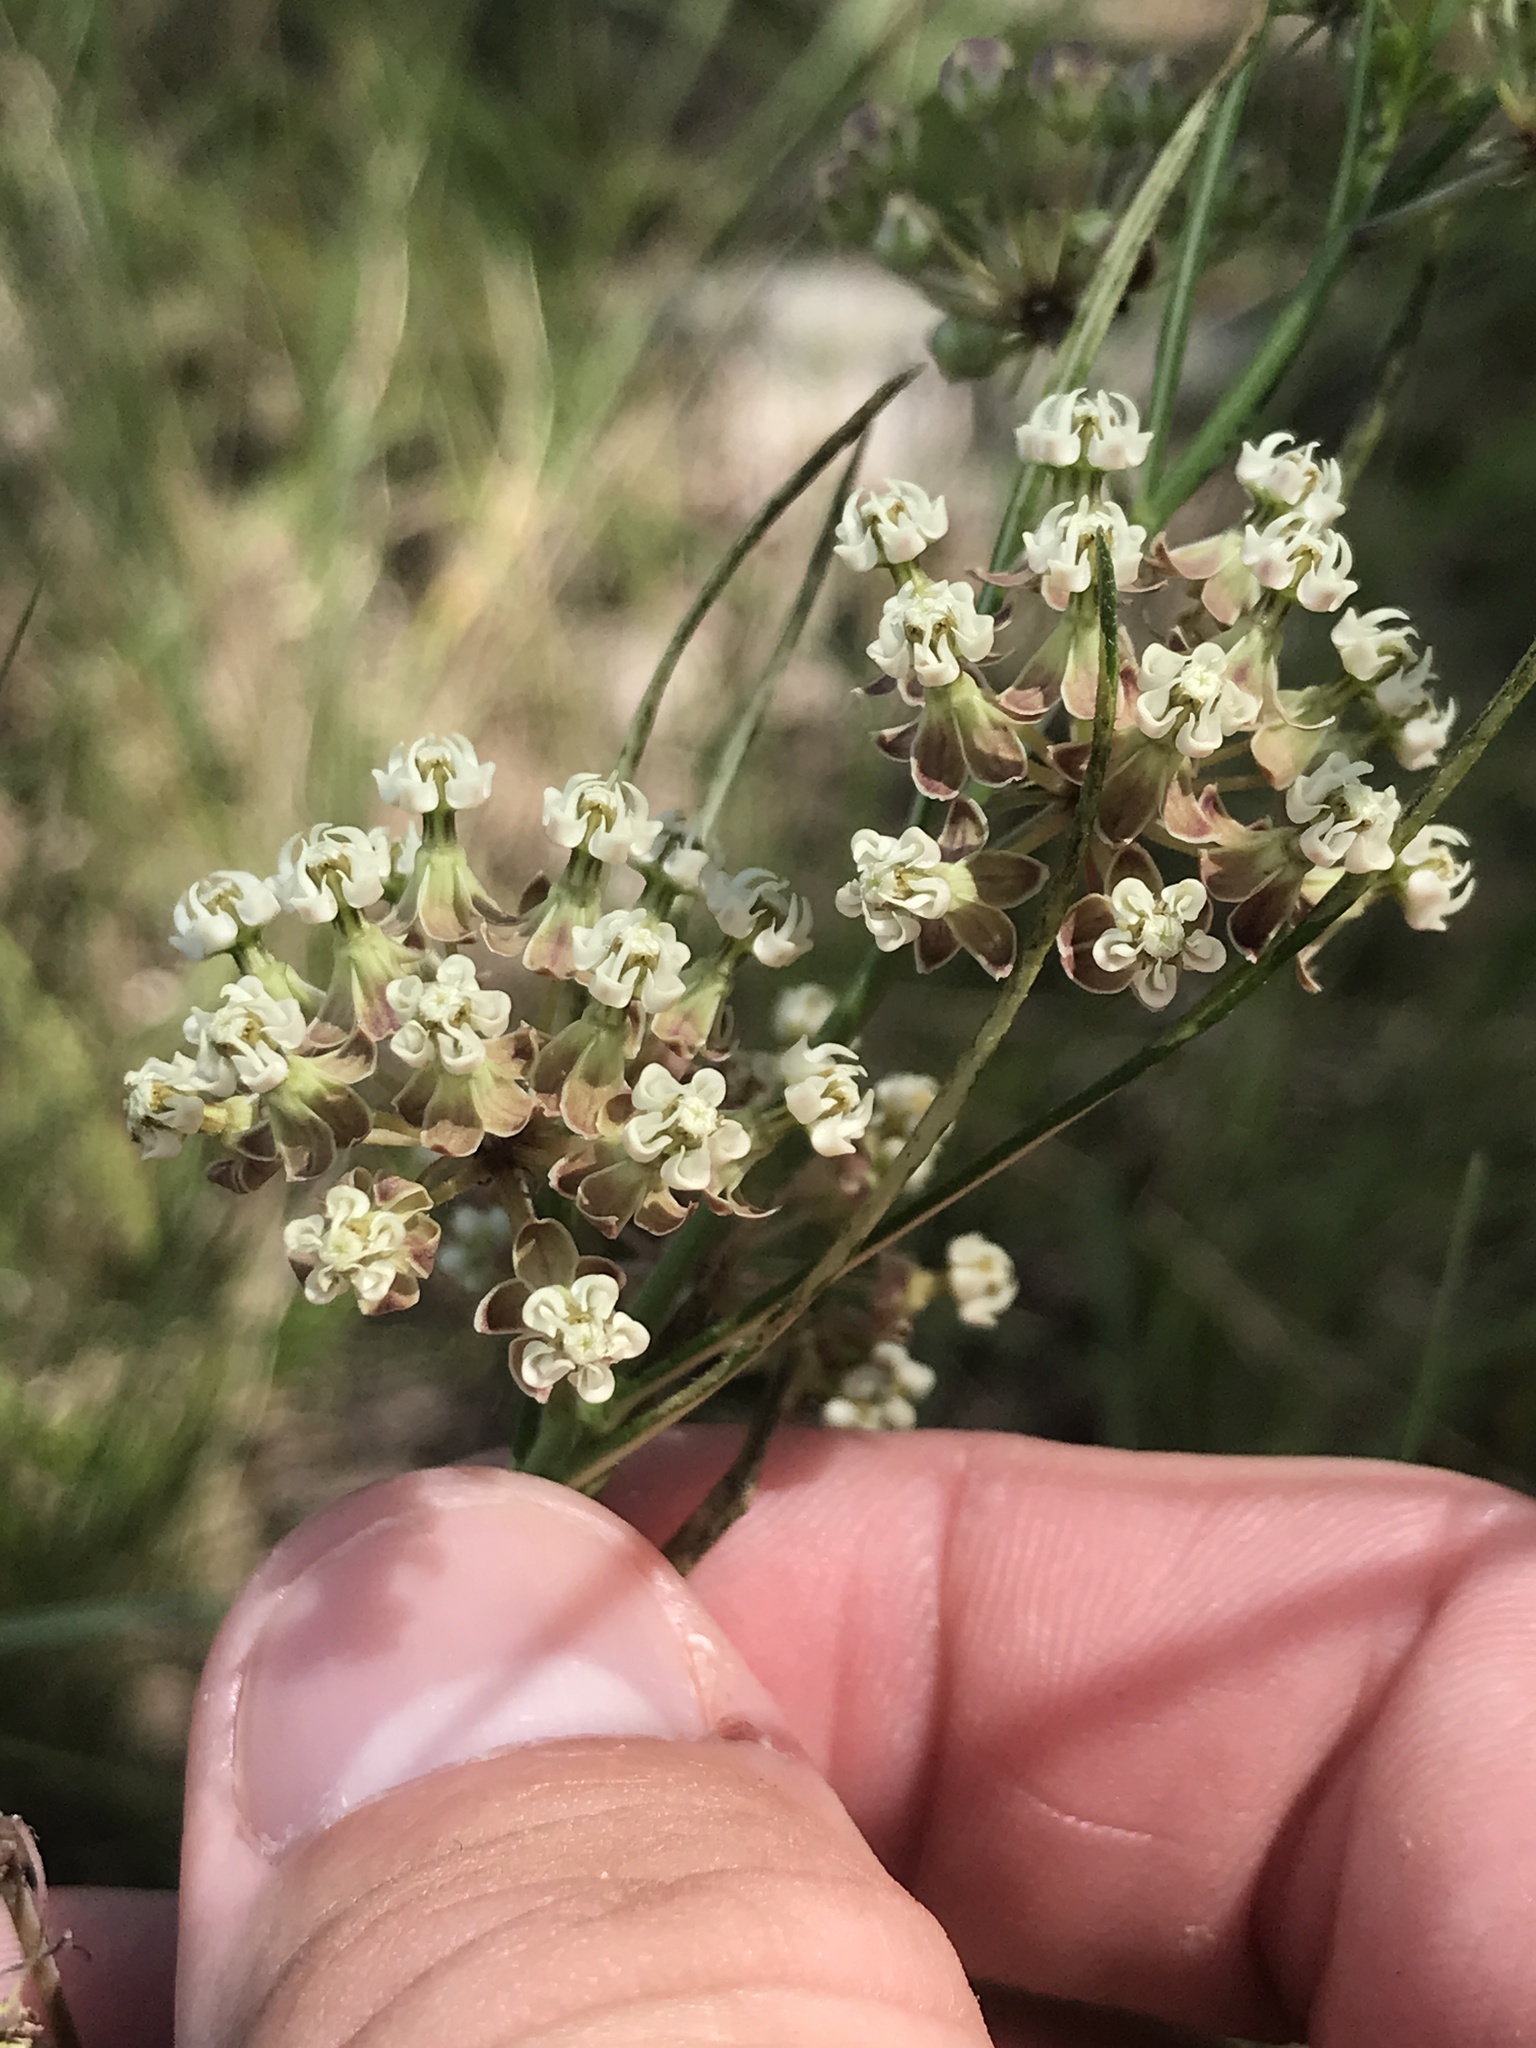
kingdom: Plantae
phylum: Tracheophyta
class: Magnoliopsida
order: Gentianales
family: Apocynaceae
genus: Asclepias
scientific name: Asclepias verticillata
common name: Eastern whorled milkweed
